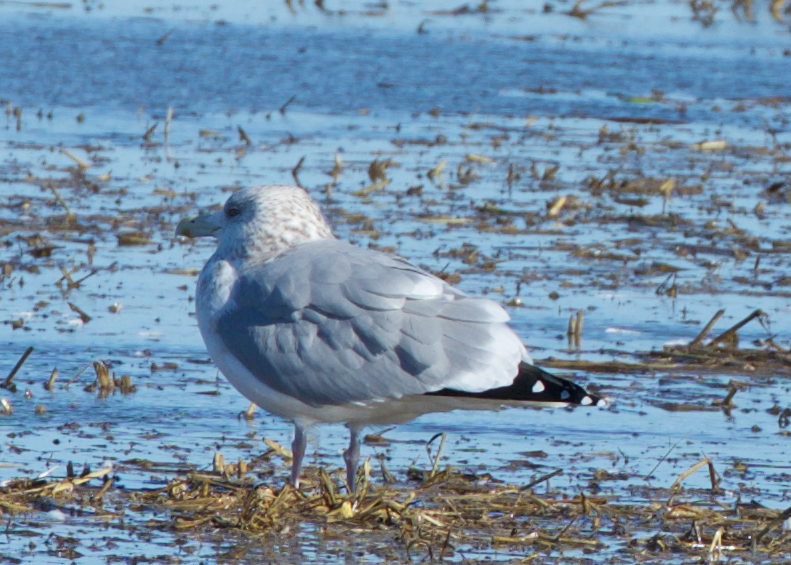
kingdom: Animalia
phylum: Chordata
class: Aves
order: Charadriiformes
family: Laridae
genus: Larus
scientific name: Larus argentatus
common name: Herring gull
